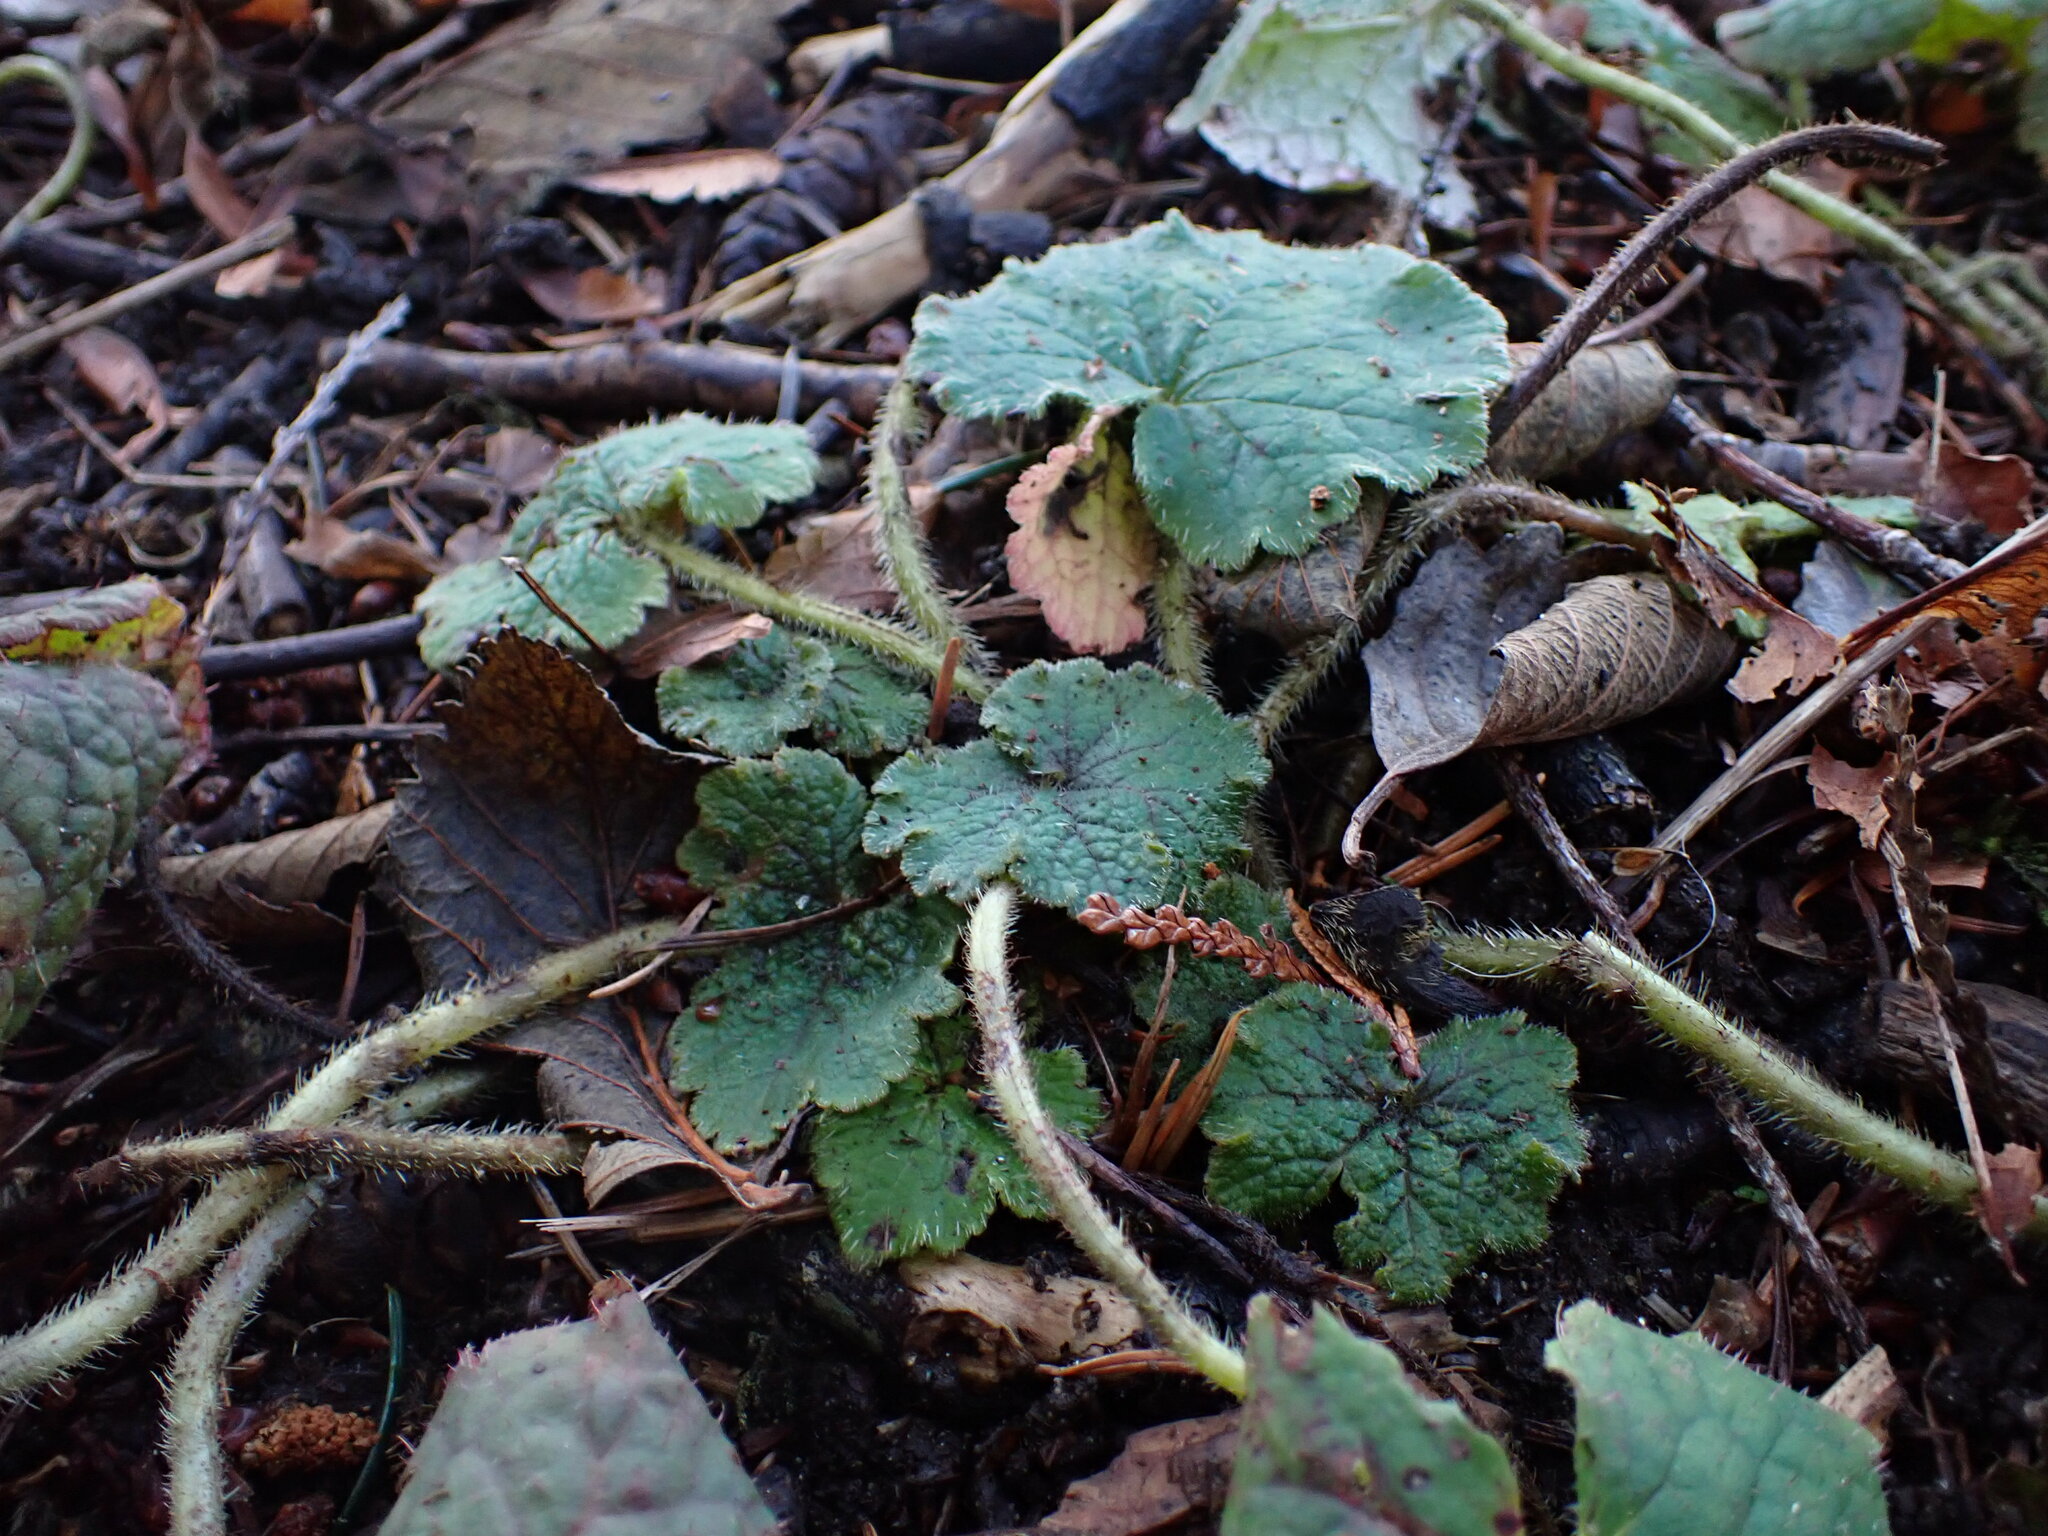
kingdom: Plantae
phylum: Tracheophyta
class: Magnoliopsida
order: Saxifragales
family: Saxifragaceae
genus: Tellima
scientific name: Tellima grandiflora
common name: Fringecups
